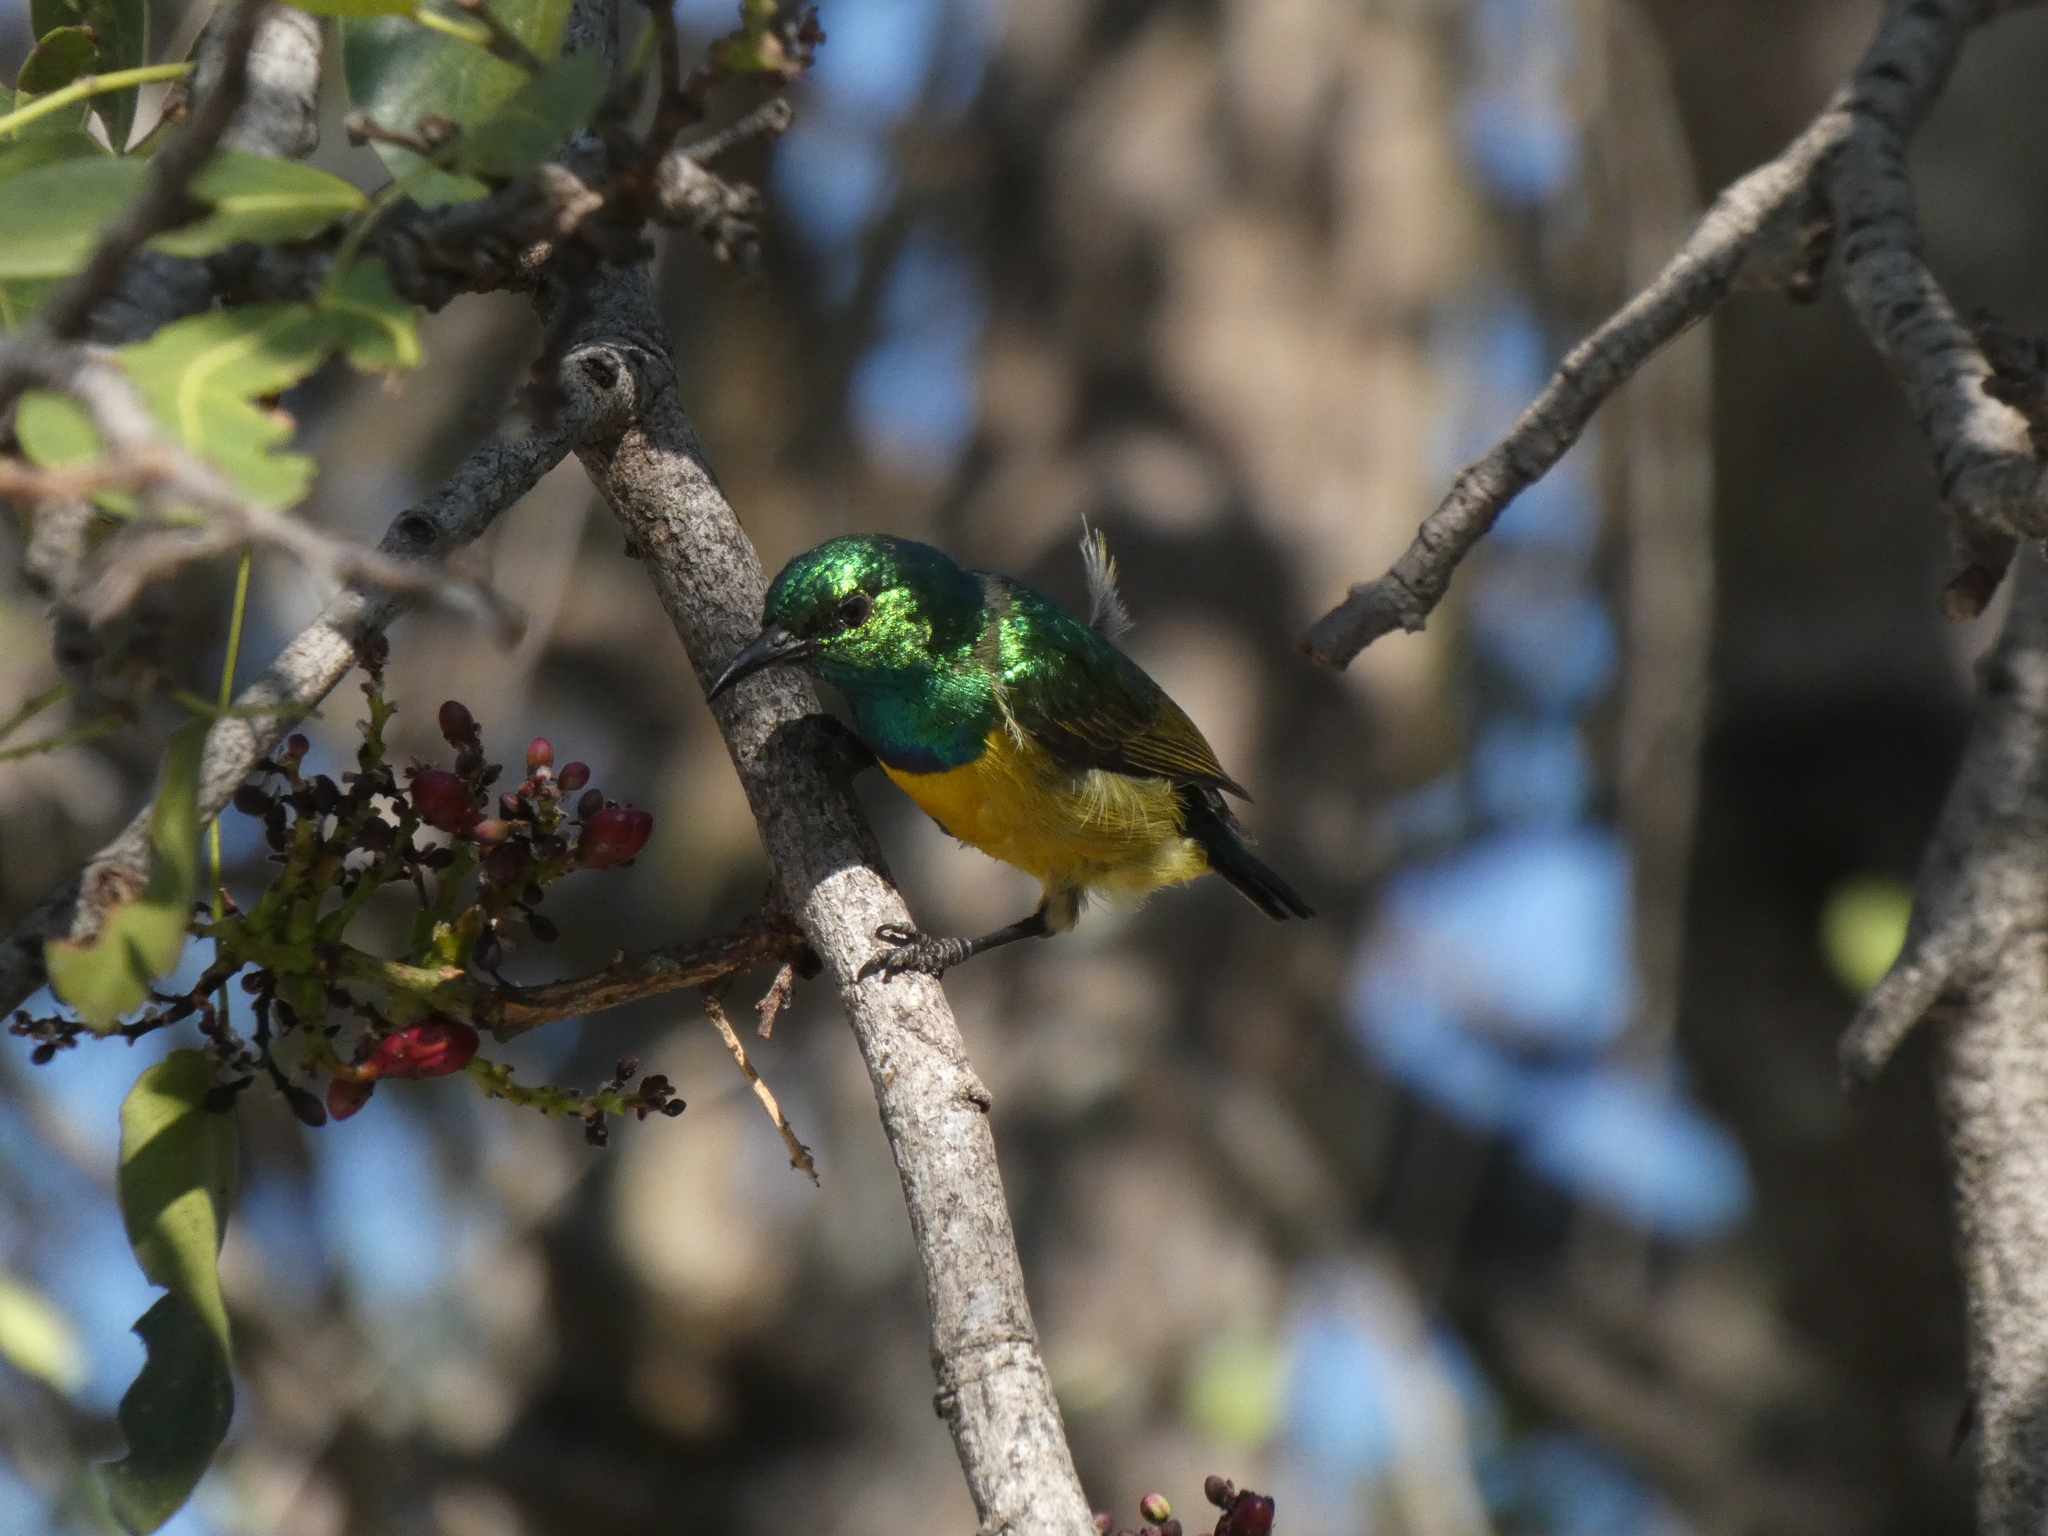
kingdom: Animalia
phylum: Chordata
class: Aves
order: Passeriformes
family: Nectariniidae
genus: Hedydipna
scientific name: Hedydipna collaris
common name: Collared sunbird
